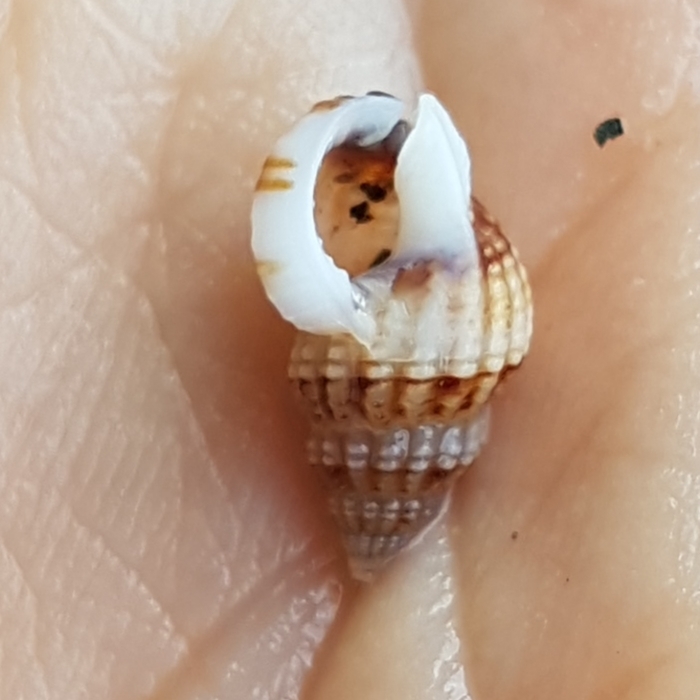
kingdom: Animalia
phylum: Mollusca
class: Gastropoda
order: Neogastropoda
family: Nassariidae
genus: Tritia
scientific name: Tritia incrassata
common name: Thick-lipped dog whelk
